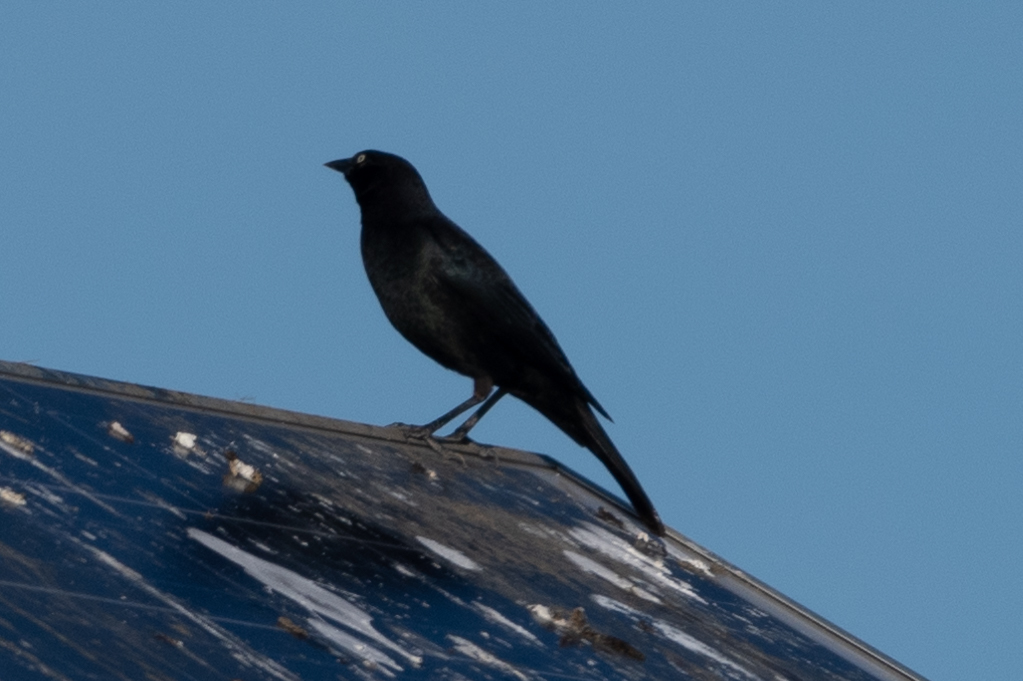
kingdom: Animalia
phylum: Chordata
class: Aves
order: Passeriformes
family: Icteridae
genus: Euphagus
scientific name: Euphagus cyanocephalus
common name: Brewer's blackbird
